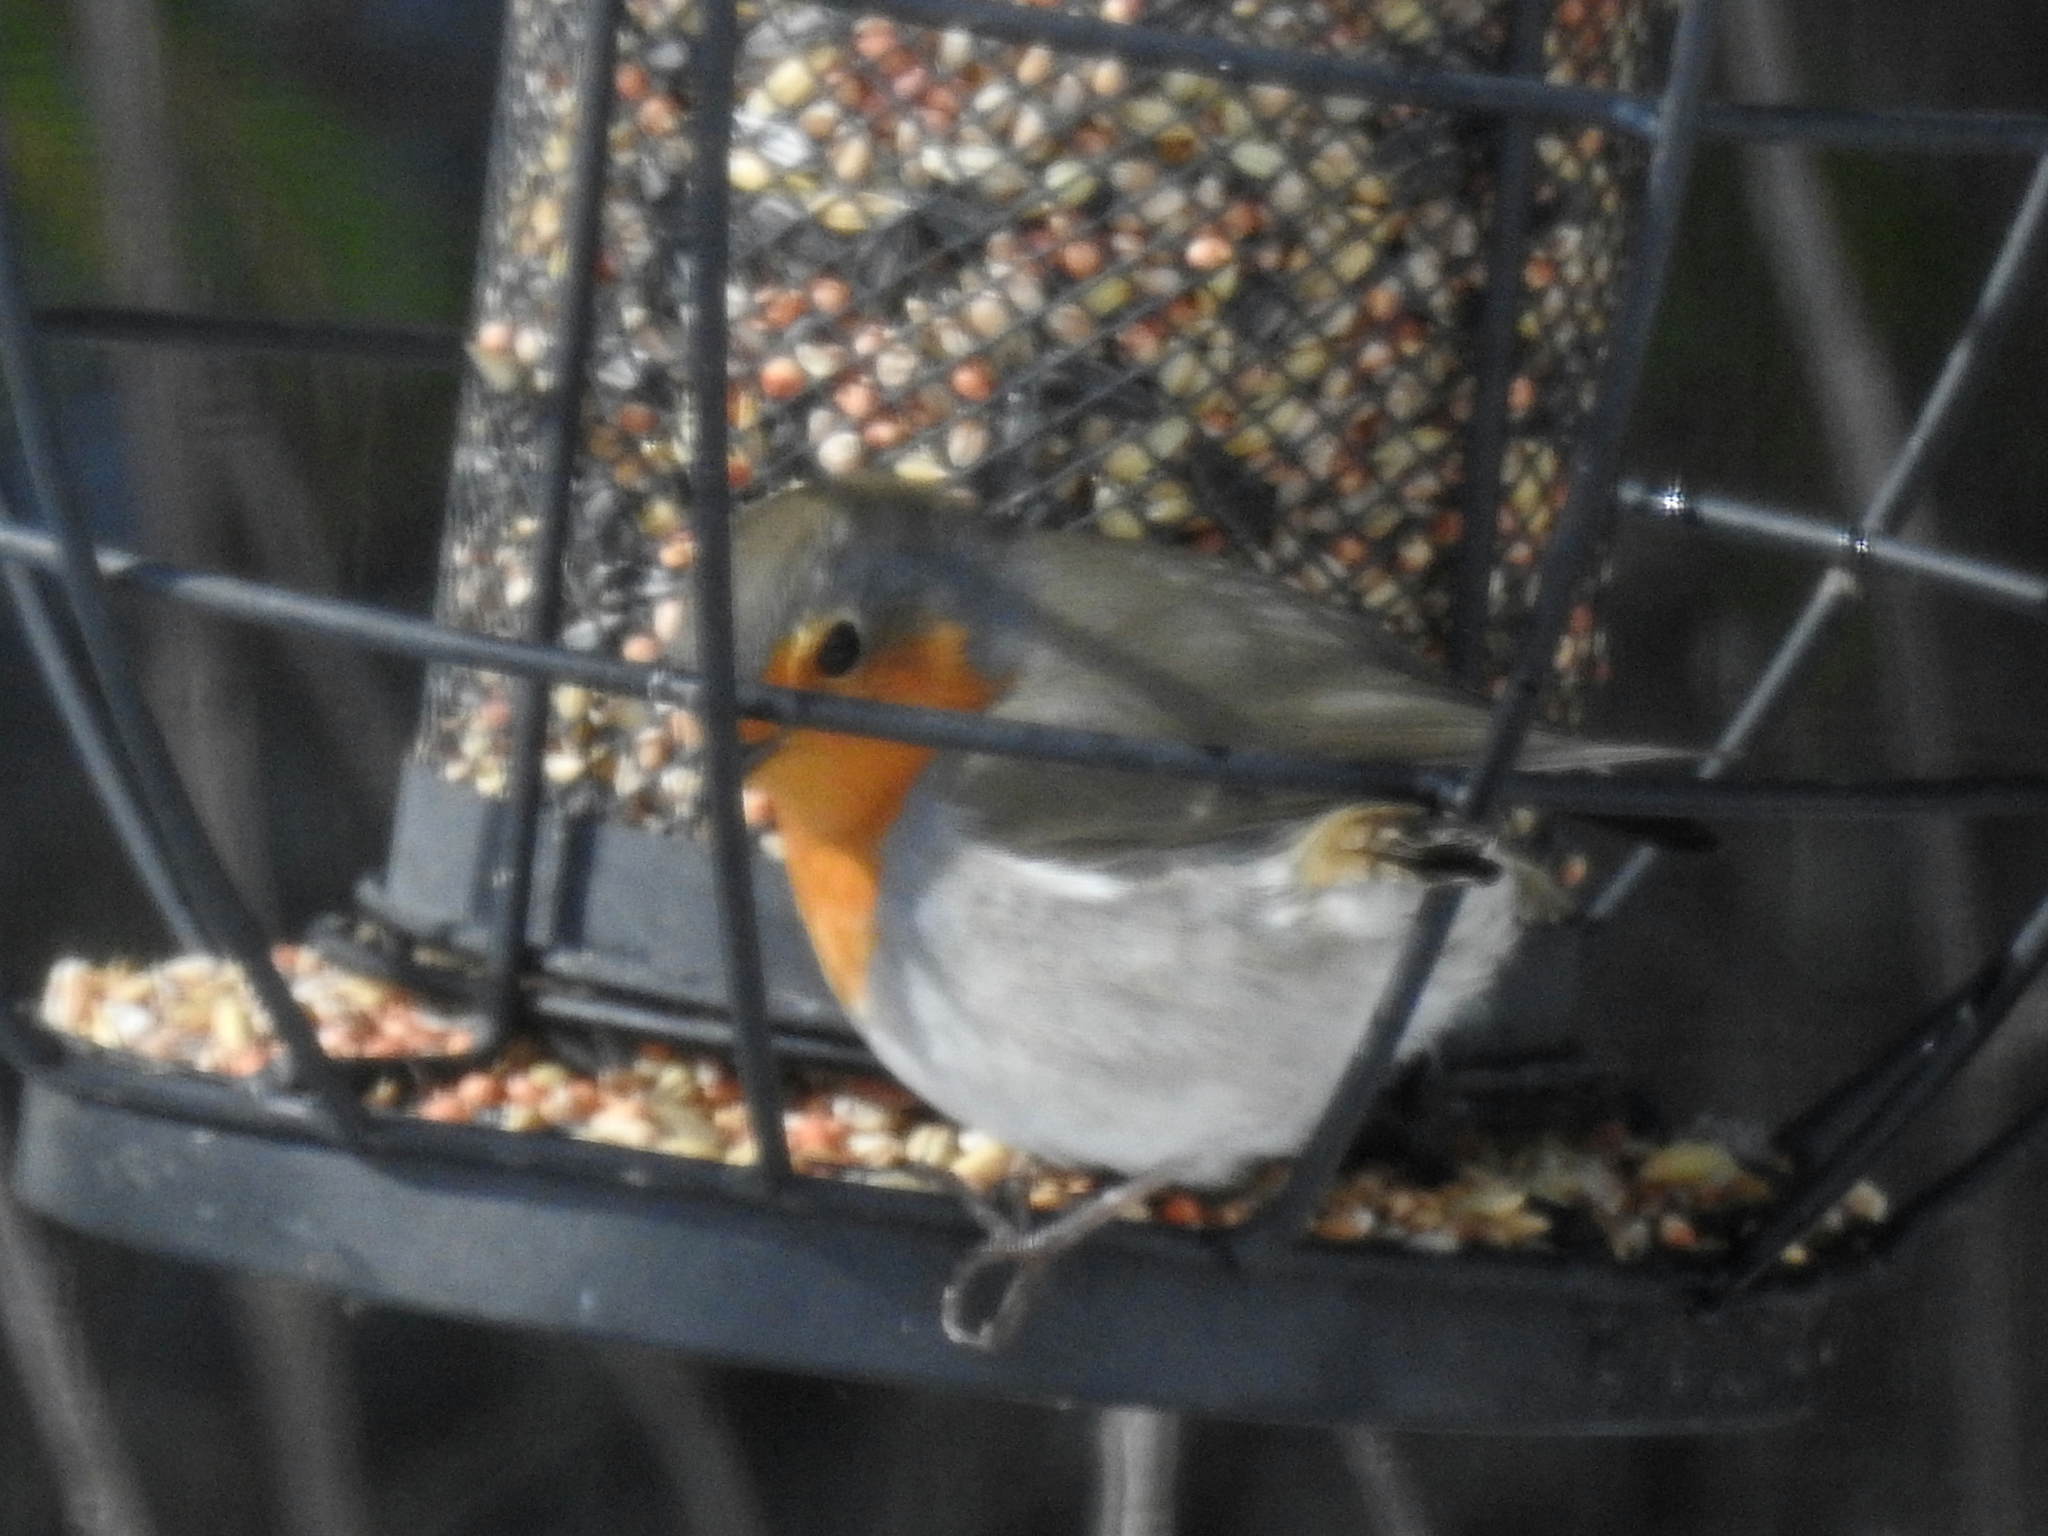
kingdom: Animalia
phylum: Chordata
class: Aves
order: Passeriformes
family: Muscicapidae
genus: Erithacus
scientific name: Erithacus rubecula
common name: European robin
